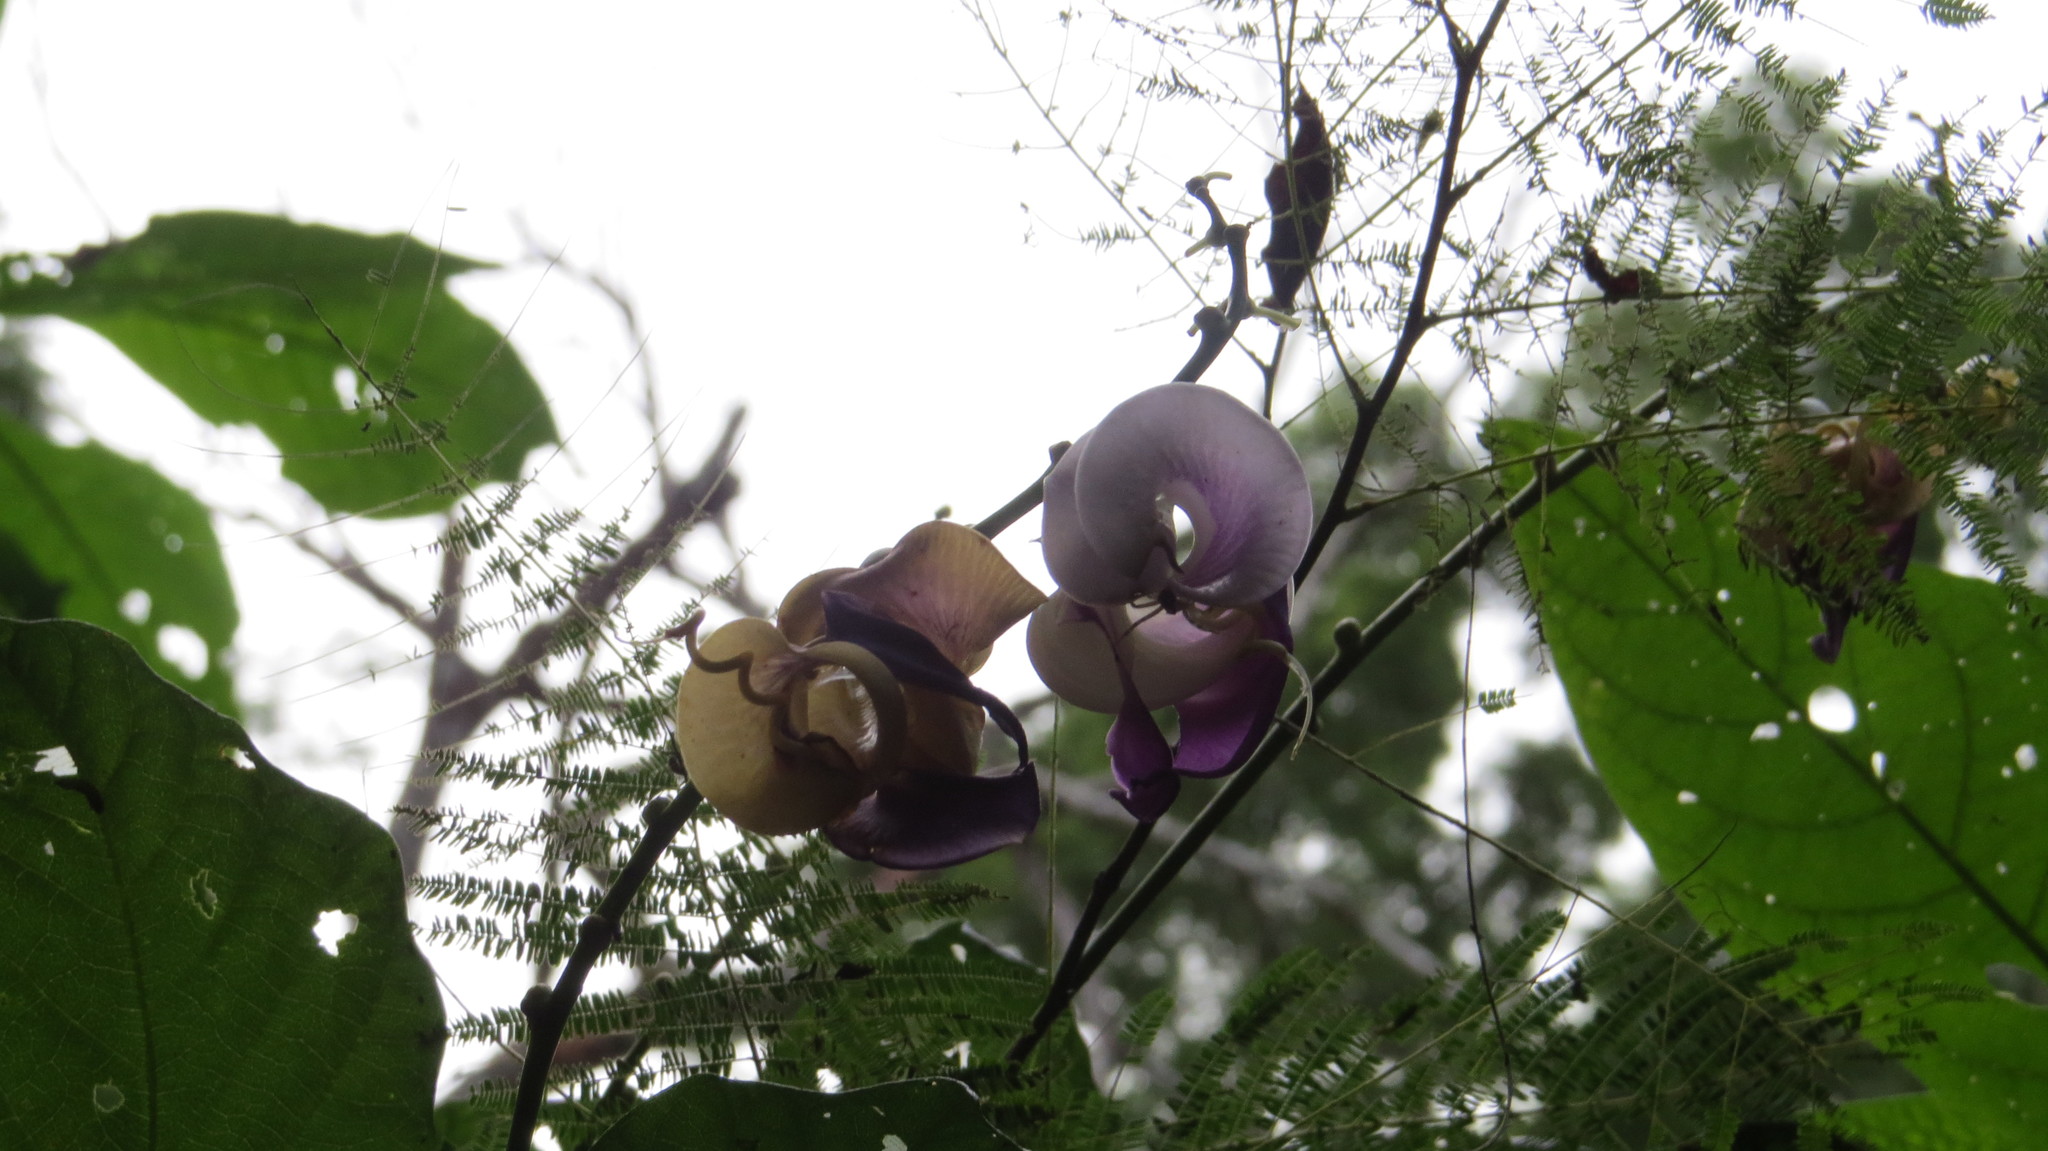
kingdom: Plantae
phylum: Tracheophyta
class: Magnoliopsida
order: Fabales
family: Fabaceae
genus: Cochliasanthus
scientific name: Cochliasanthus caracalla
